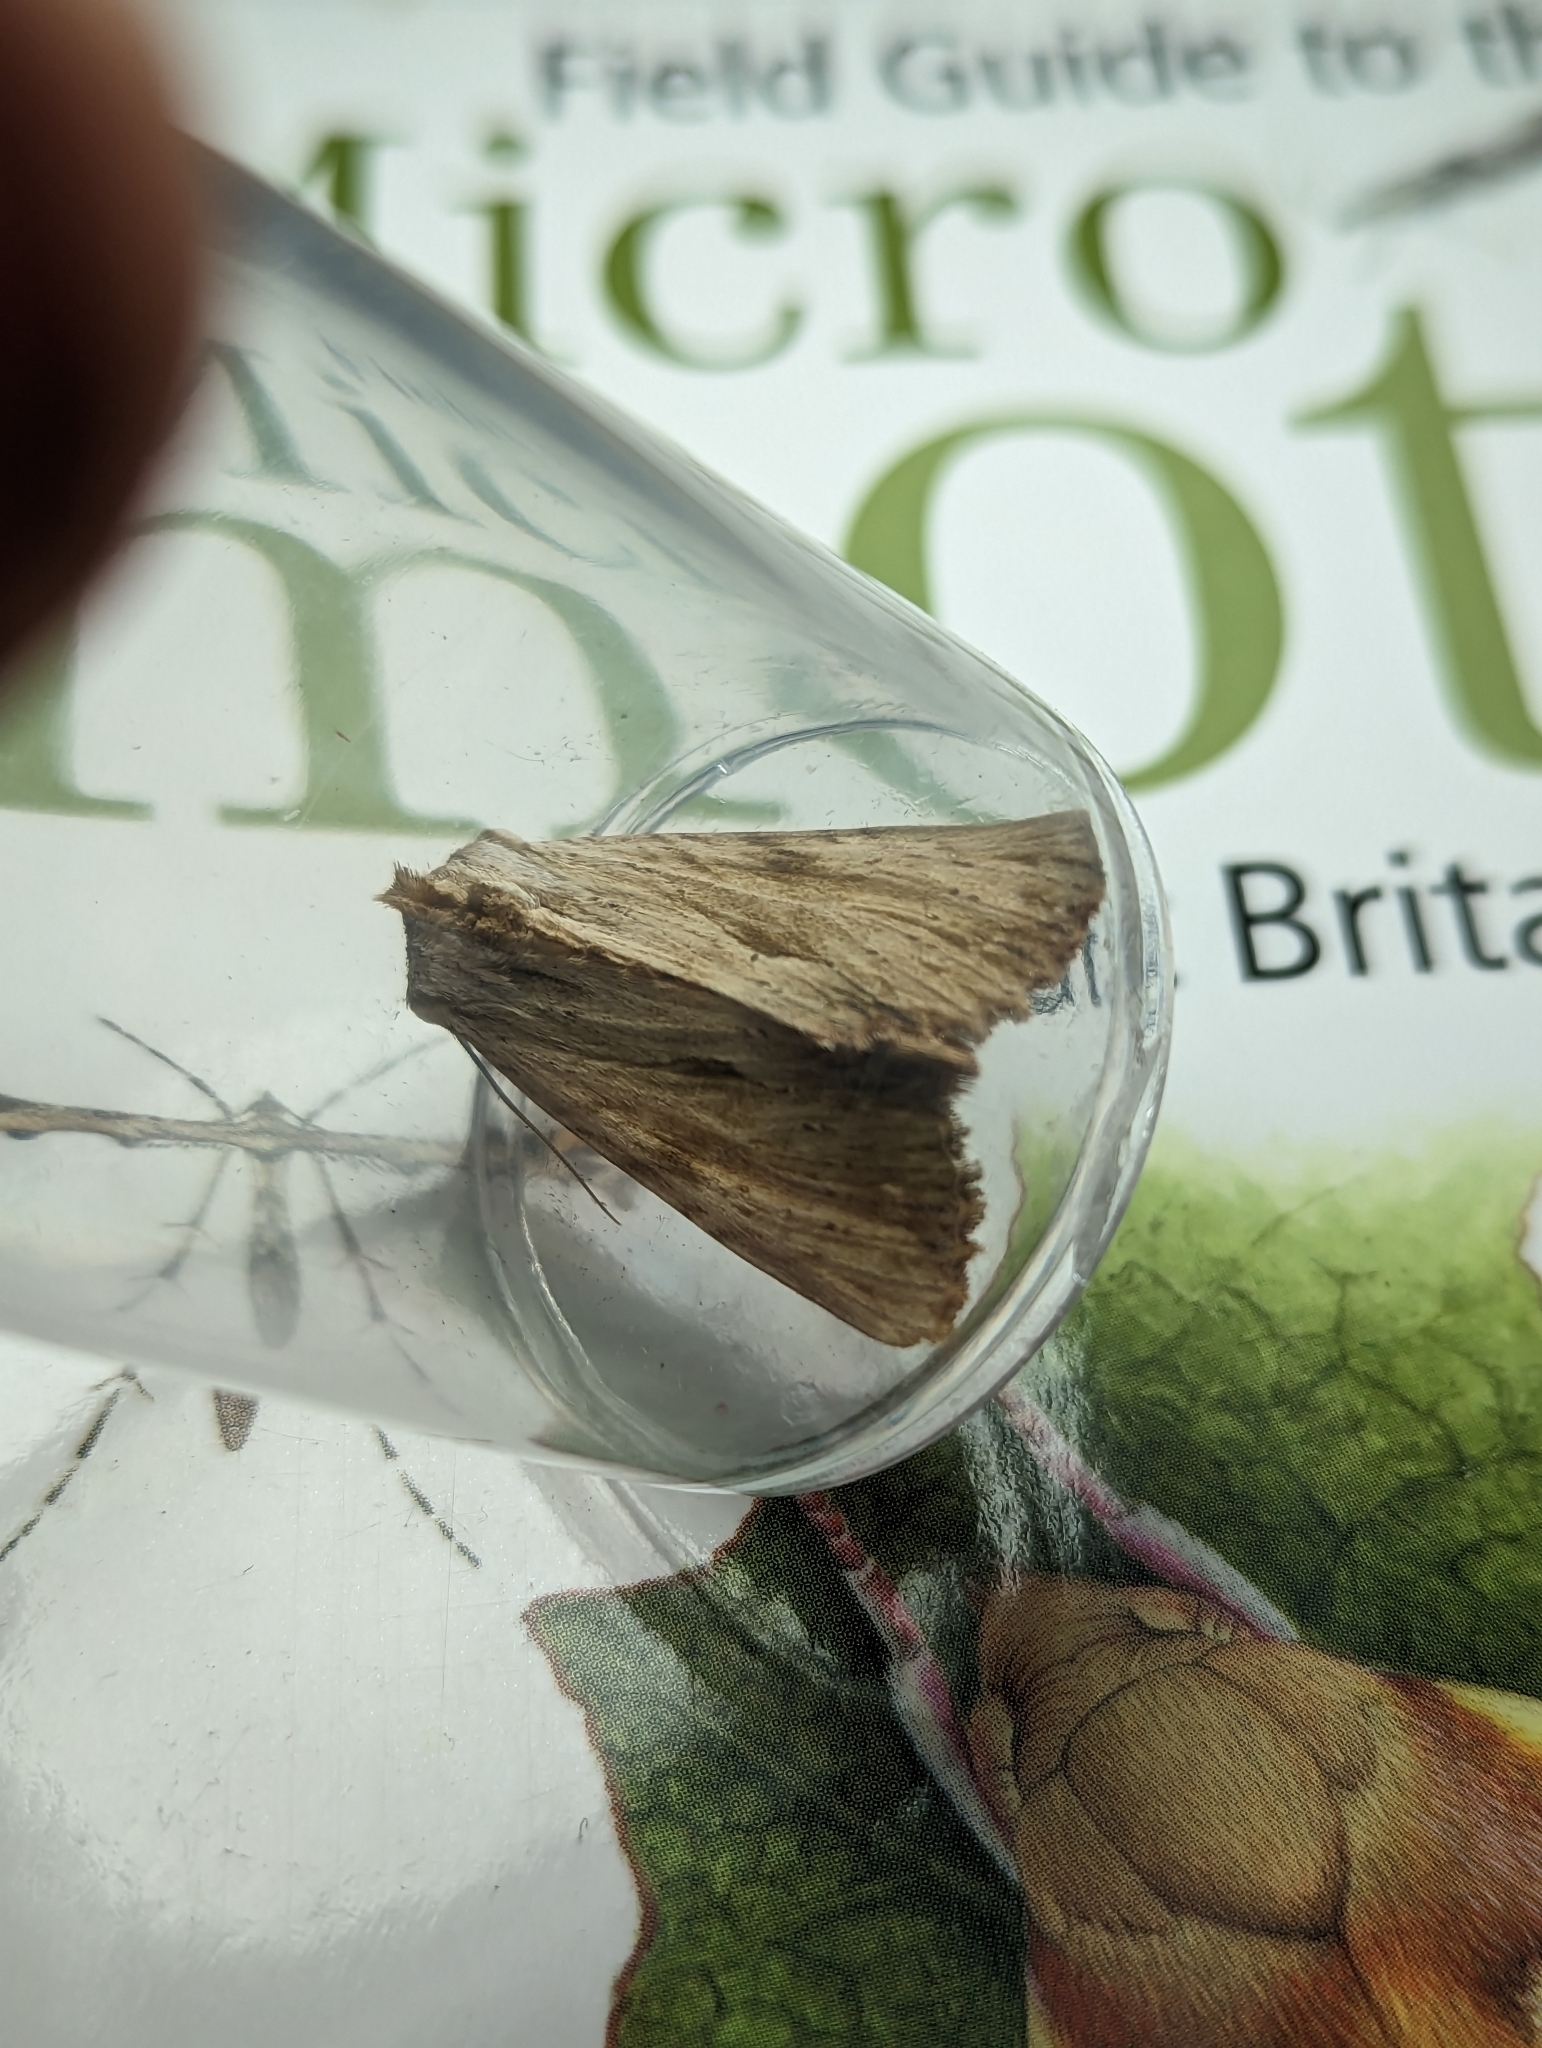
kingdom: Animalia
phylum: Arthropoda
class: Insecta
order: Lepidoptera
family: Noctuidae
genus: Apamea
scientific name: Apamea lithoxylaea
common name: Light arches
